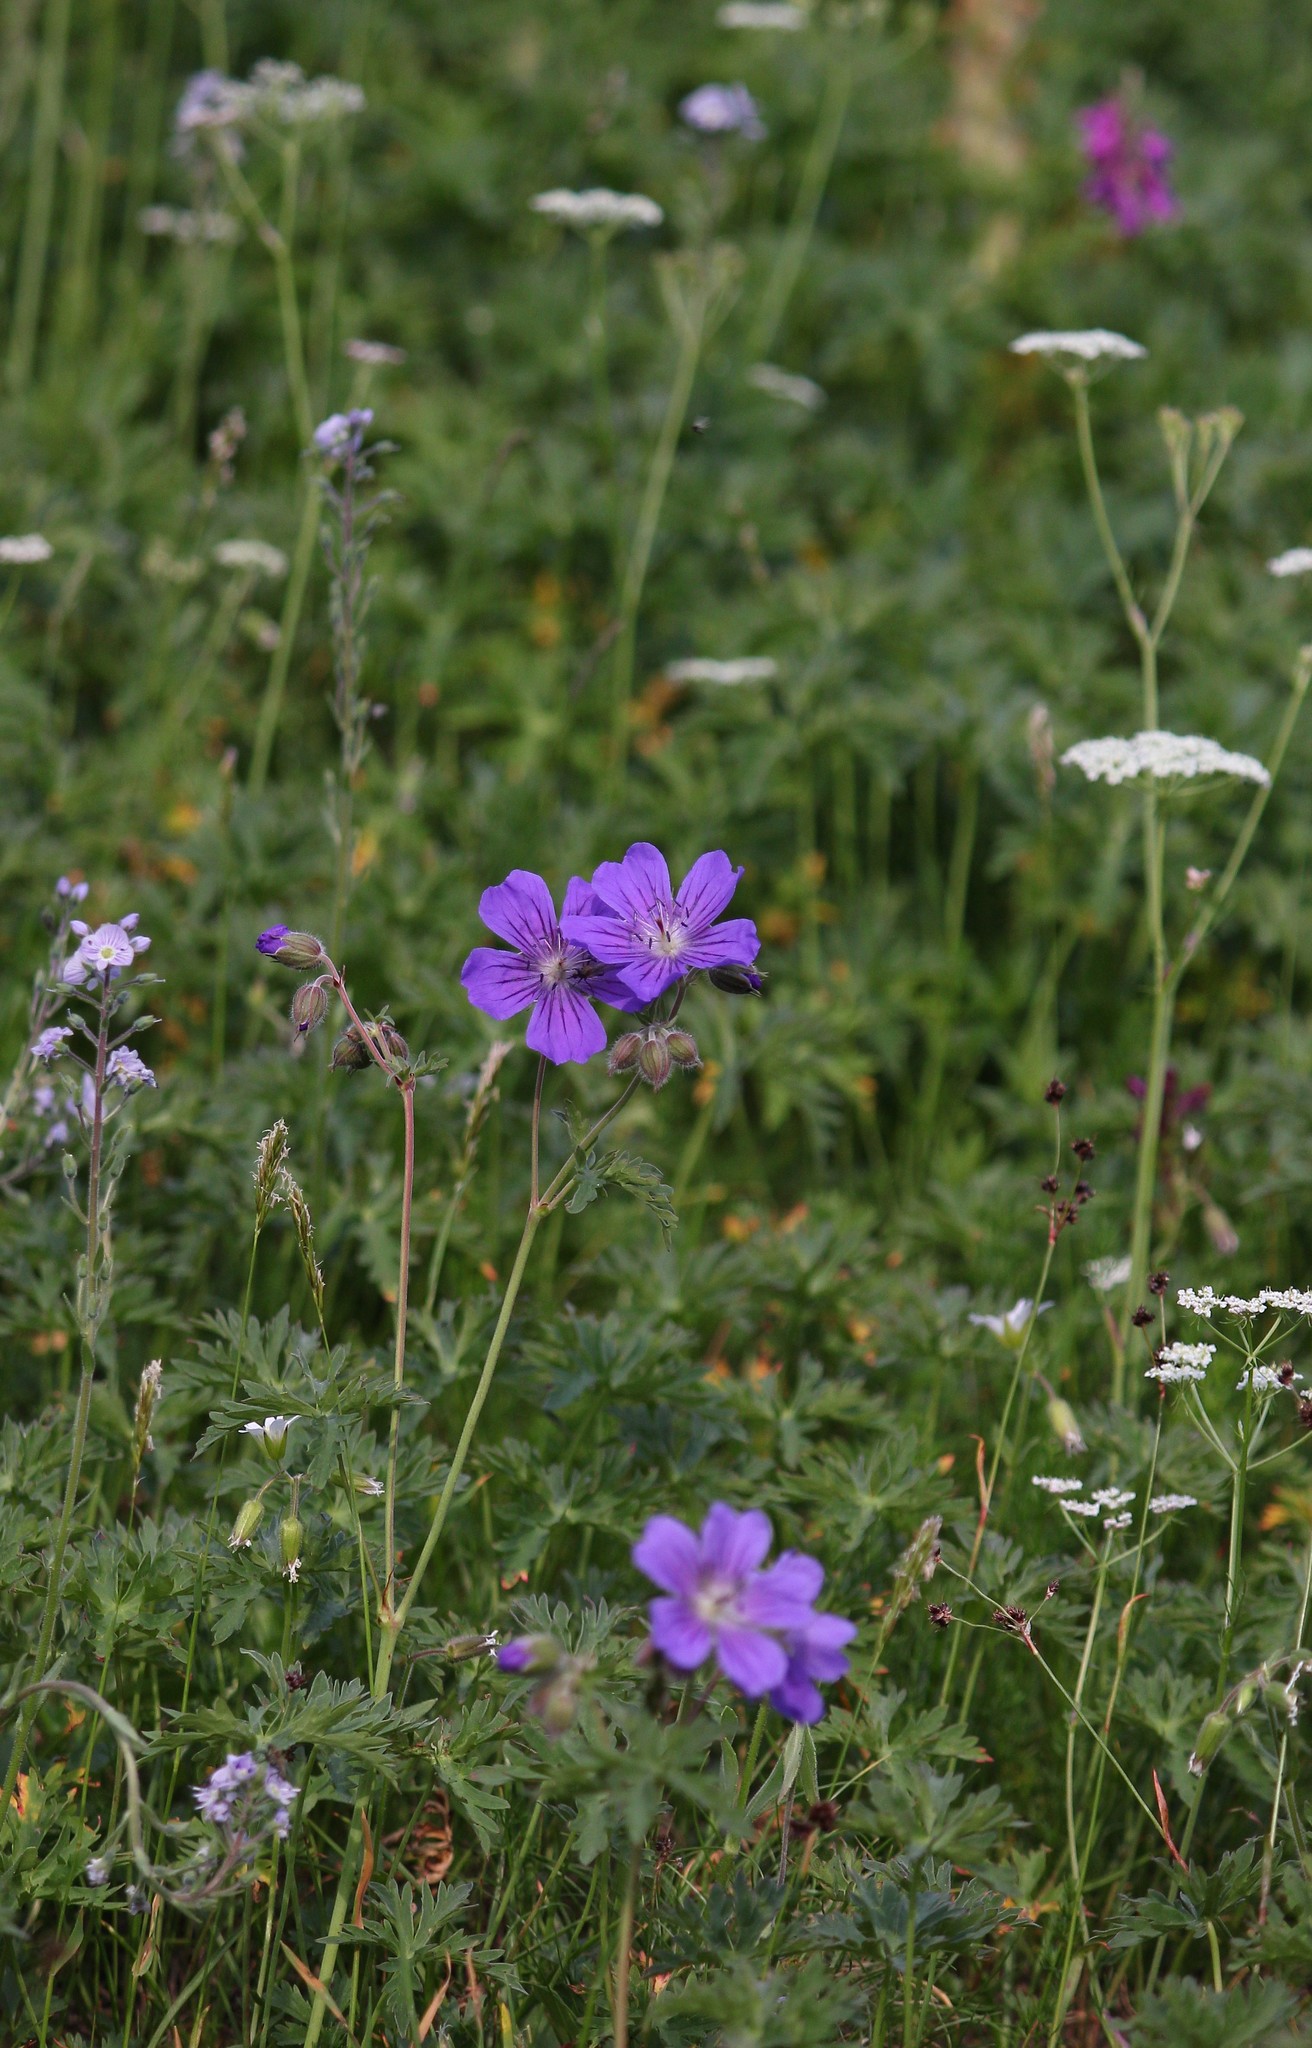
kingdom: Plantae
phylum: Tracheophyta
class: Magnoliopsida
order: Geraniales
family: Geraniaceae
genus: Geranium
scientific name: Geranium gymnocaulon
